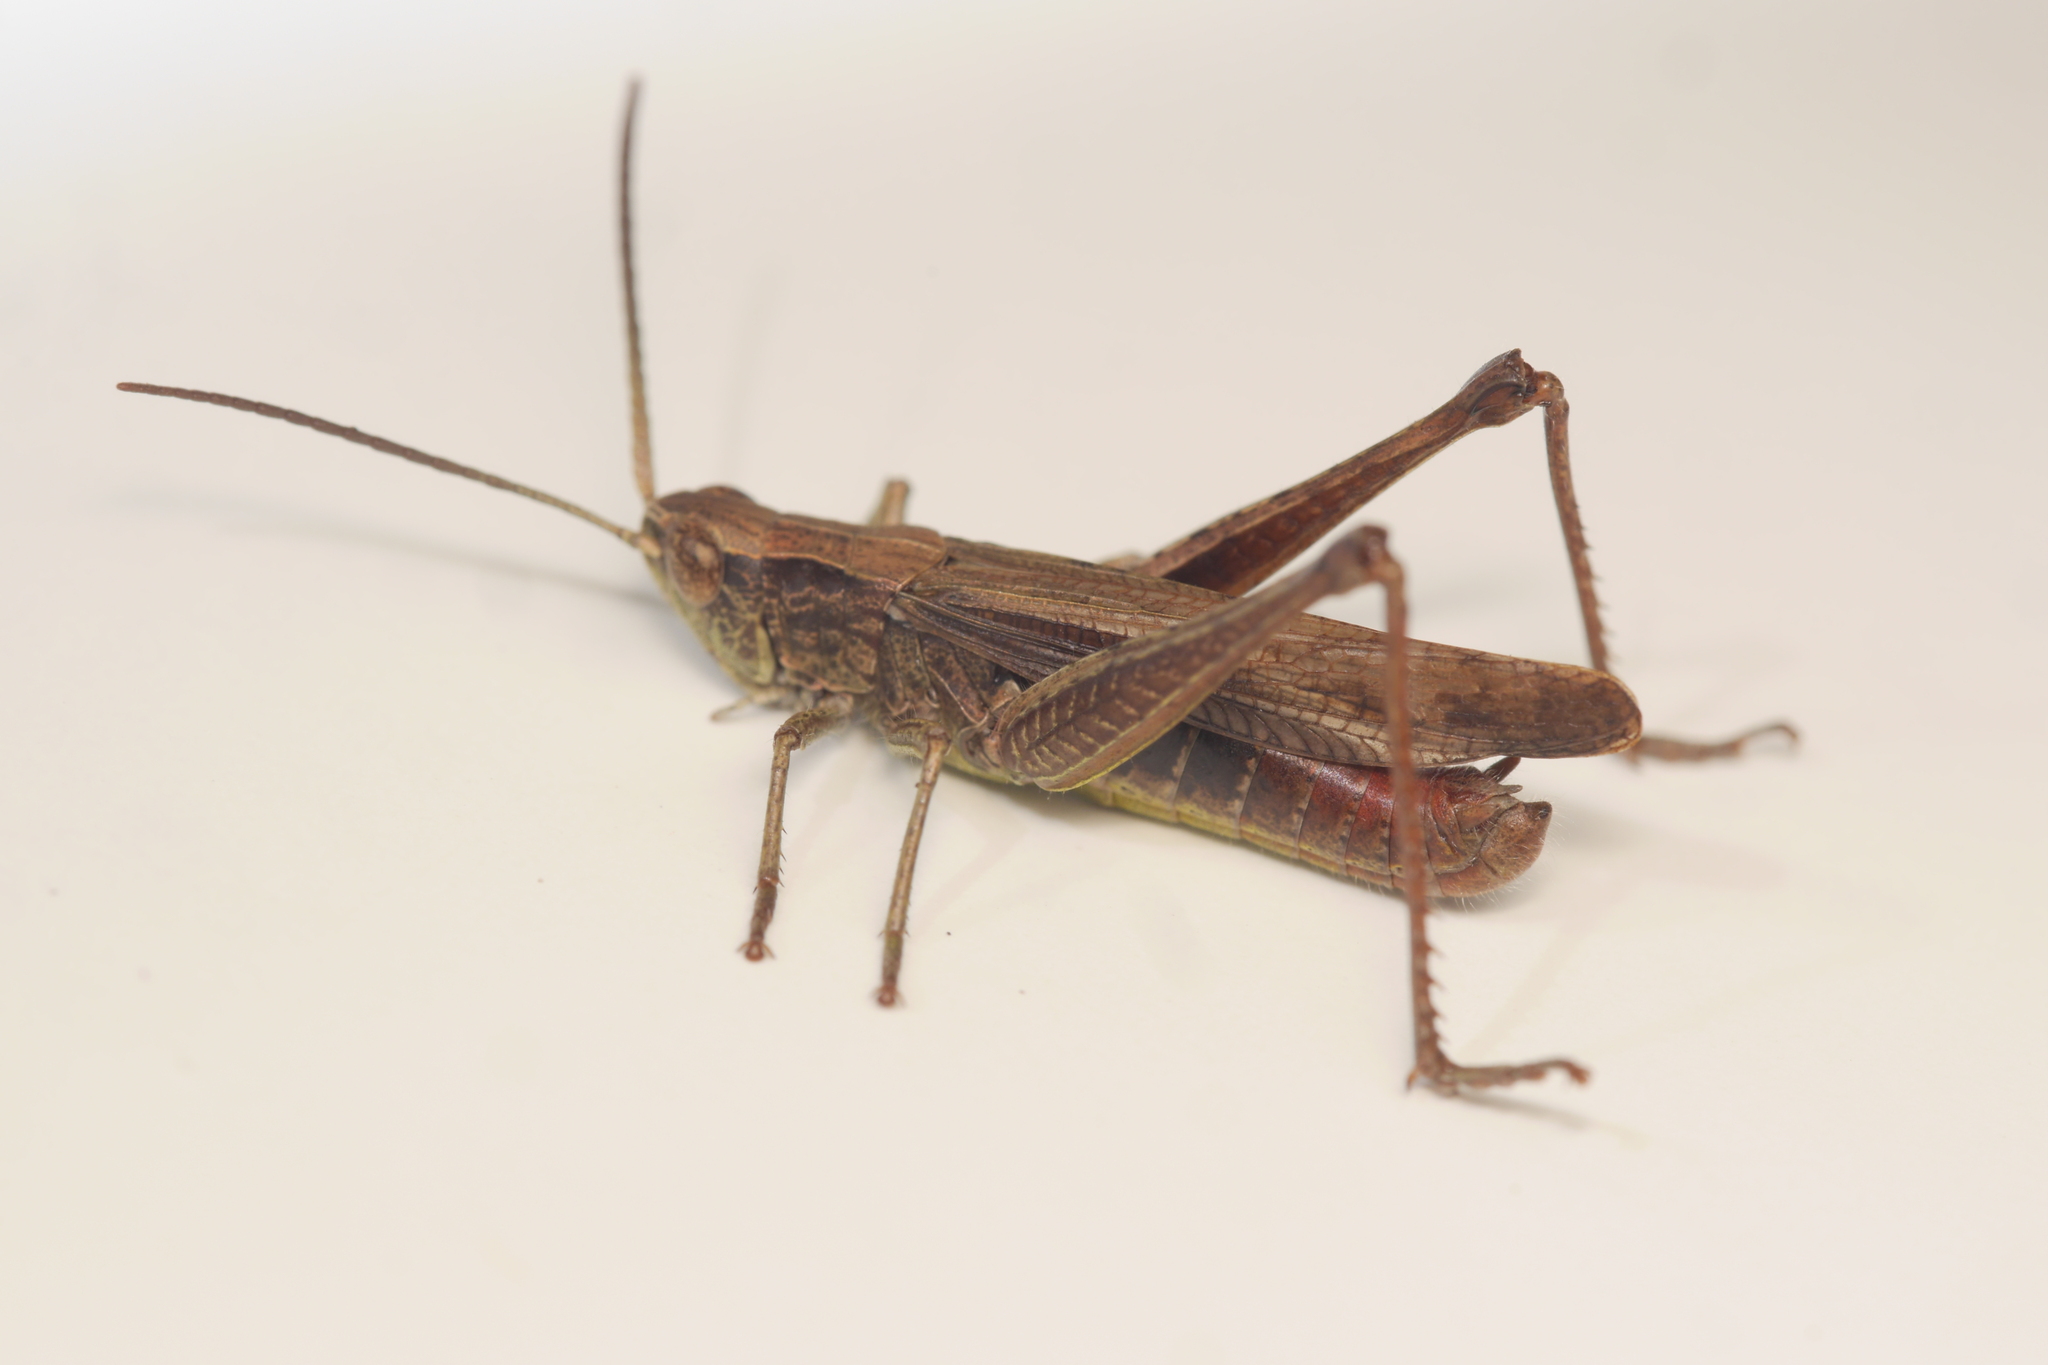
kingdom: Animalia
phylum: Arthropoda
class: Insecta
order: Orthoptera
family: Acrididae
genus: Chorthippus
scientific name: Chorthippus dorsatus
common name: Steppe grasshopper
